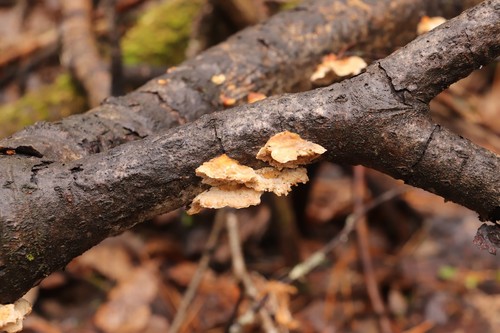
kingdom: Fungi
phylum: Basidiomycota
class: Agaricomycetes
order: Polyporales
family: Polyporaceae
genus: Trametes
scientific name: Trametes ochracea
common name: Ochre bracket
